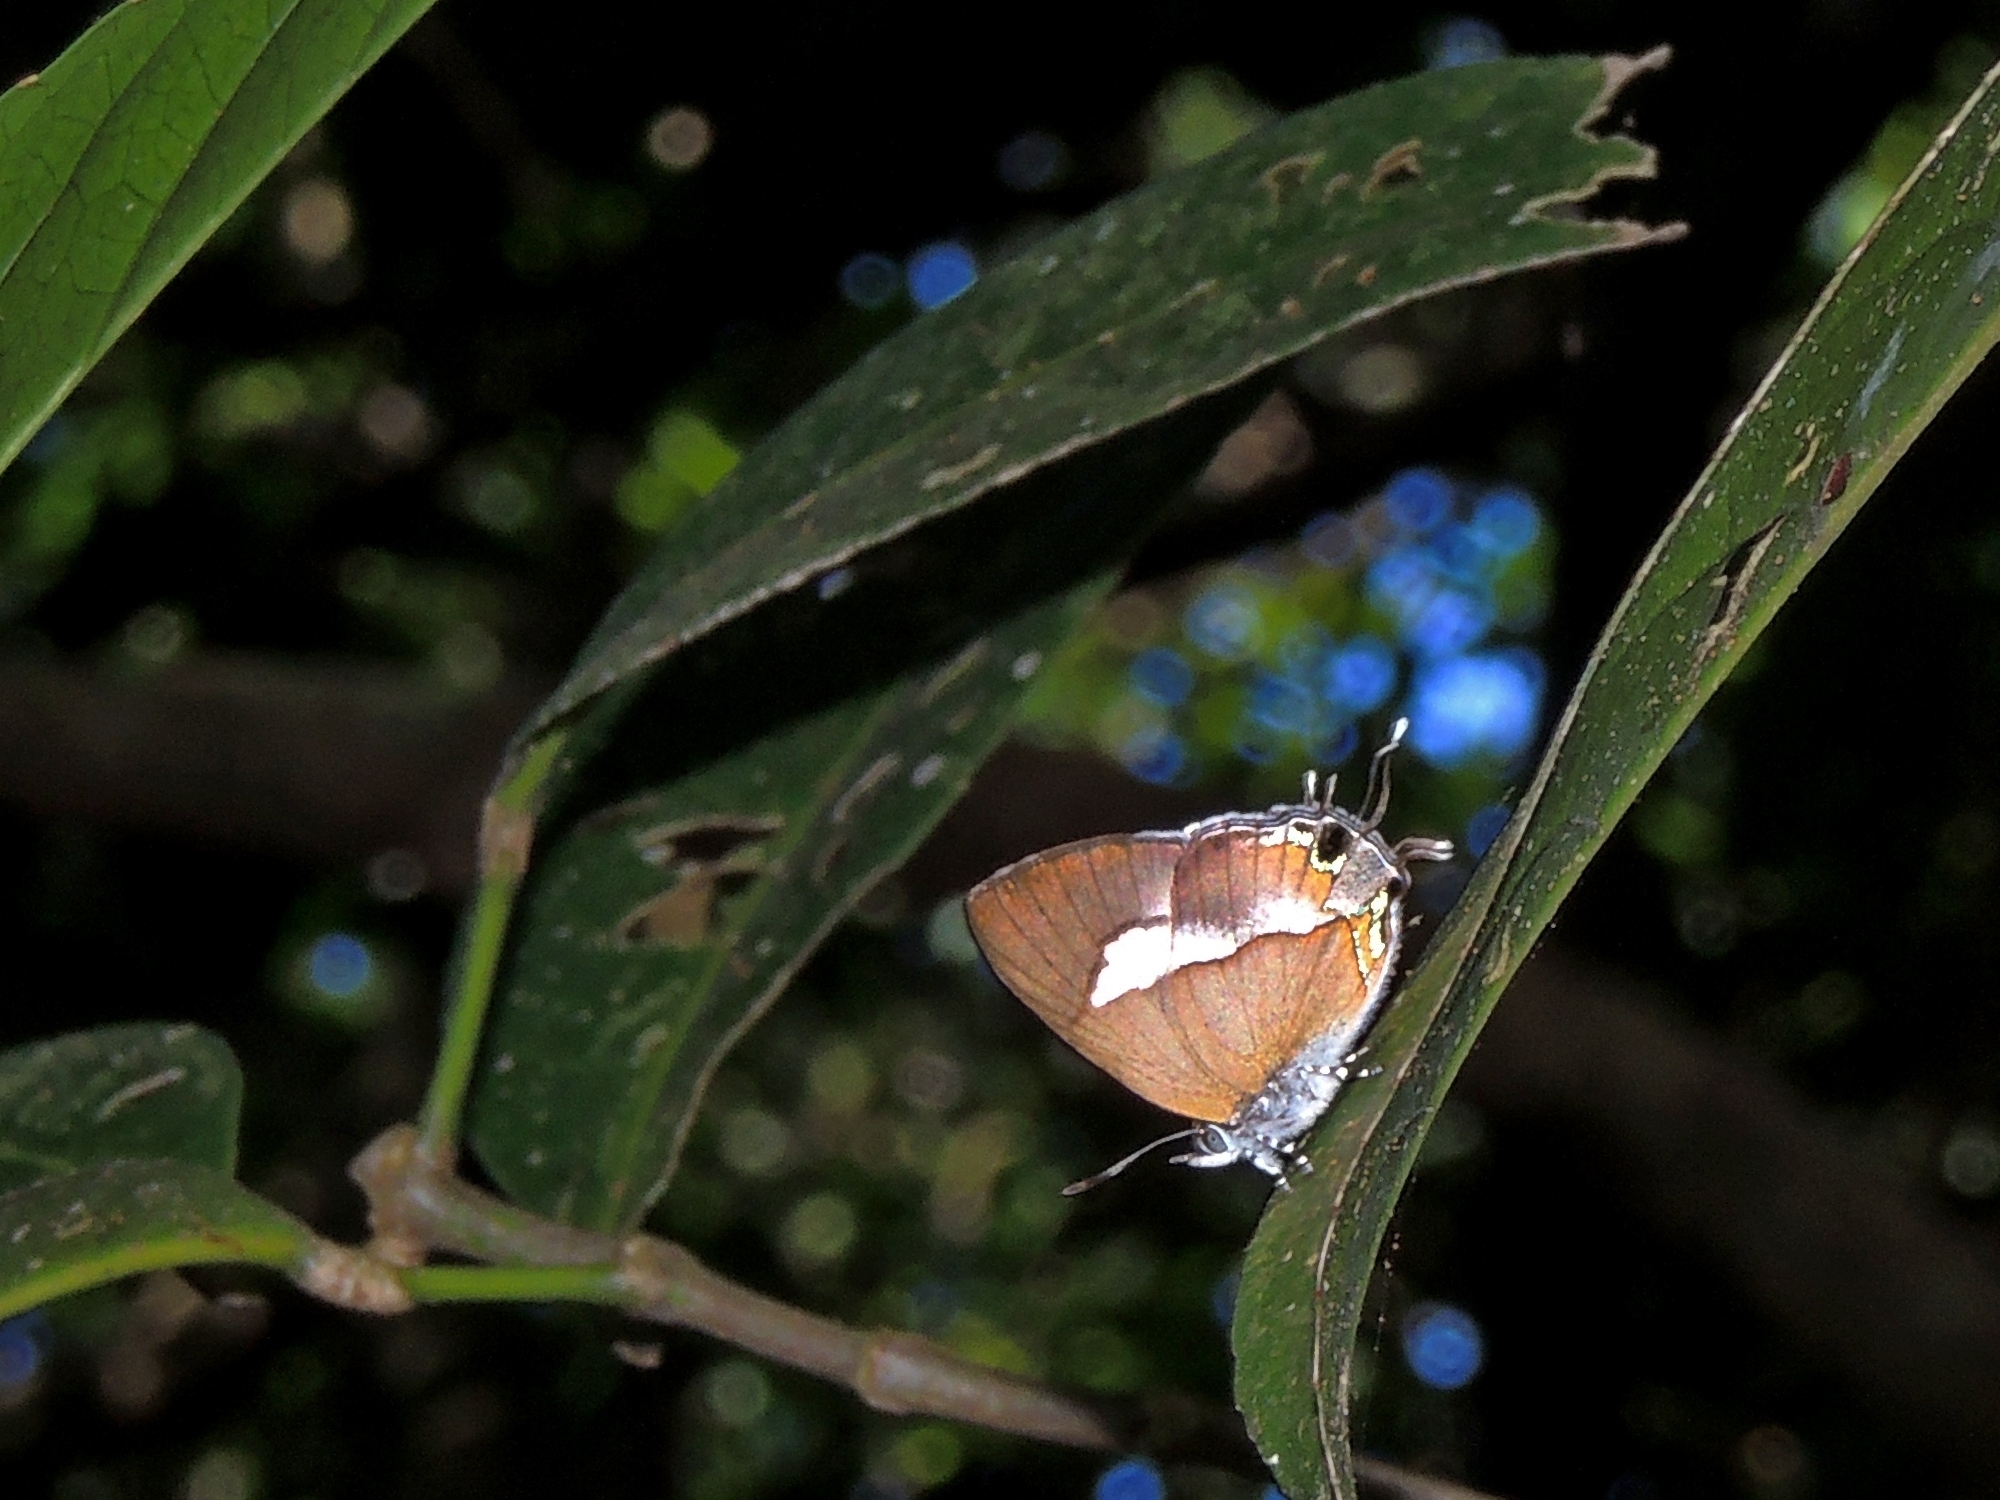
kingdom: Animalia
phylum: Arthropoda
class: Insecta
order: Lepidoptera
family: Lycaenidae
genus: Horaga
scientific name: Horaga albimacula
